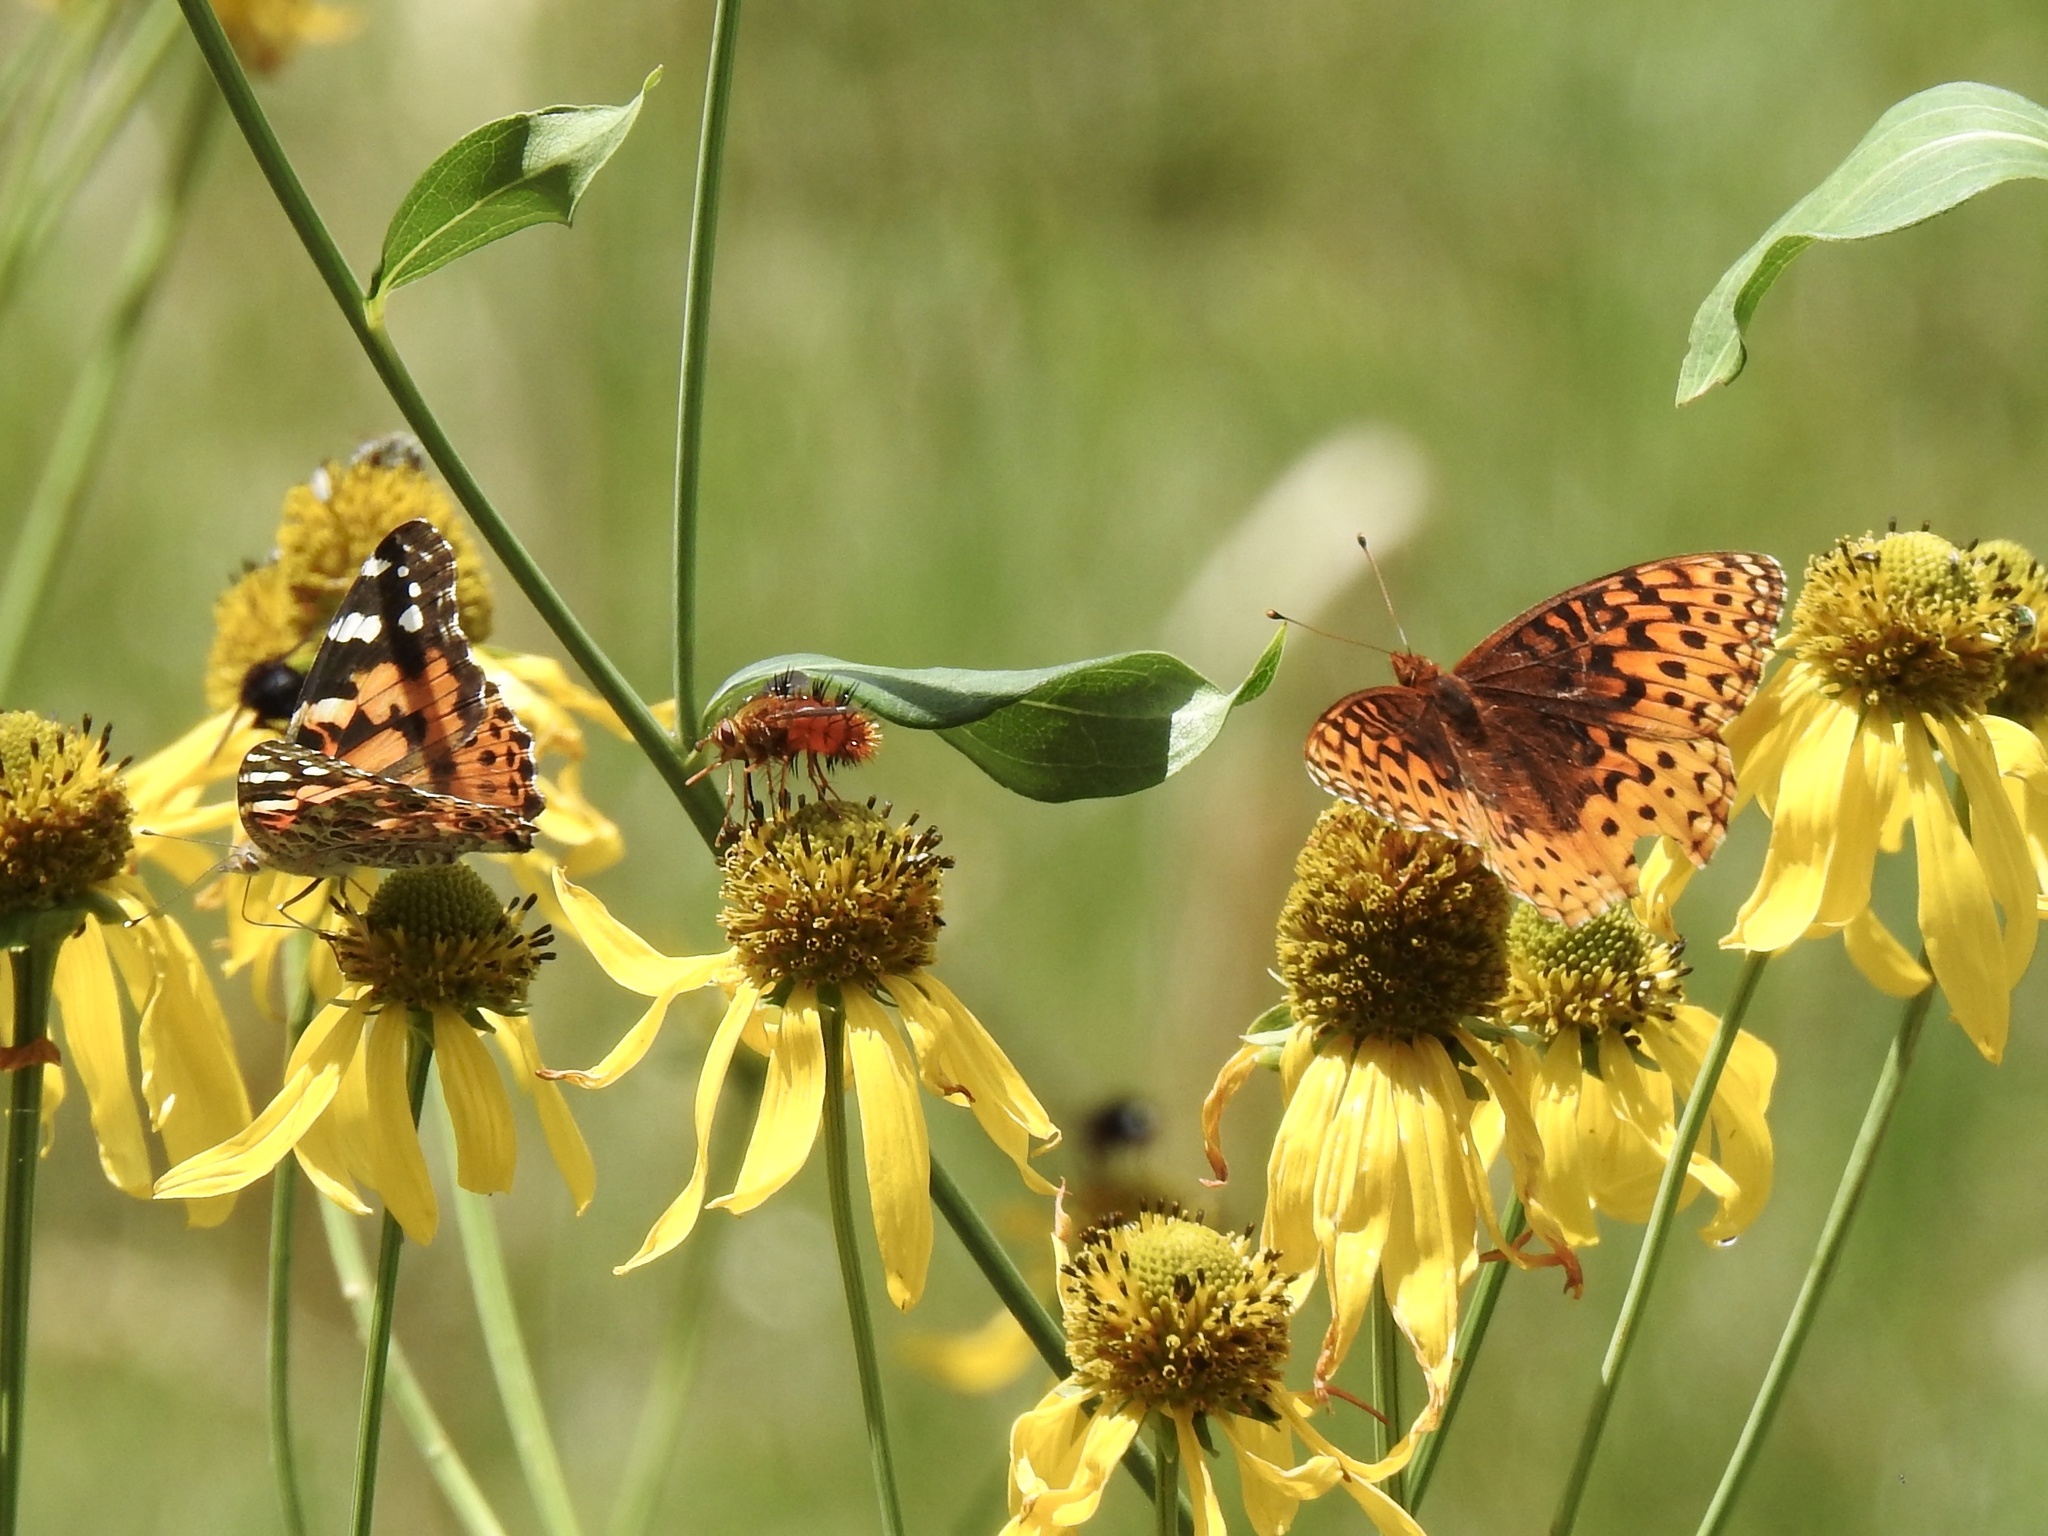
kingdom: Animalia
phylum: Arthropoda
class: Insecta
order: Lepidoptera
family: Nymphalidae
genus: Vanessa
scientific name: Vanessa cardui
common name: Painted lady
